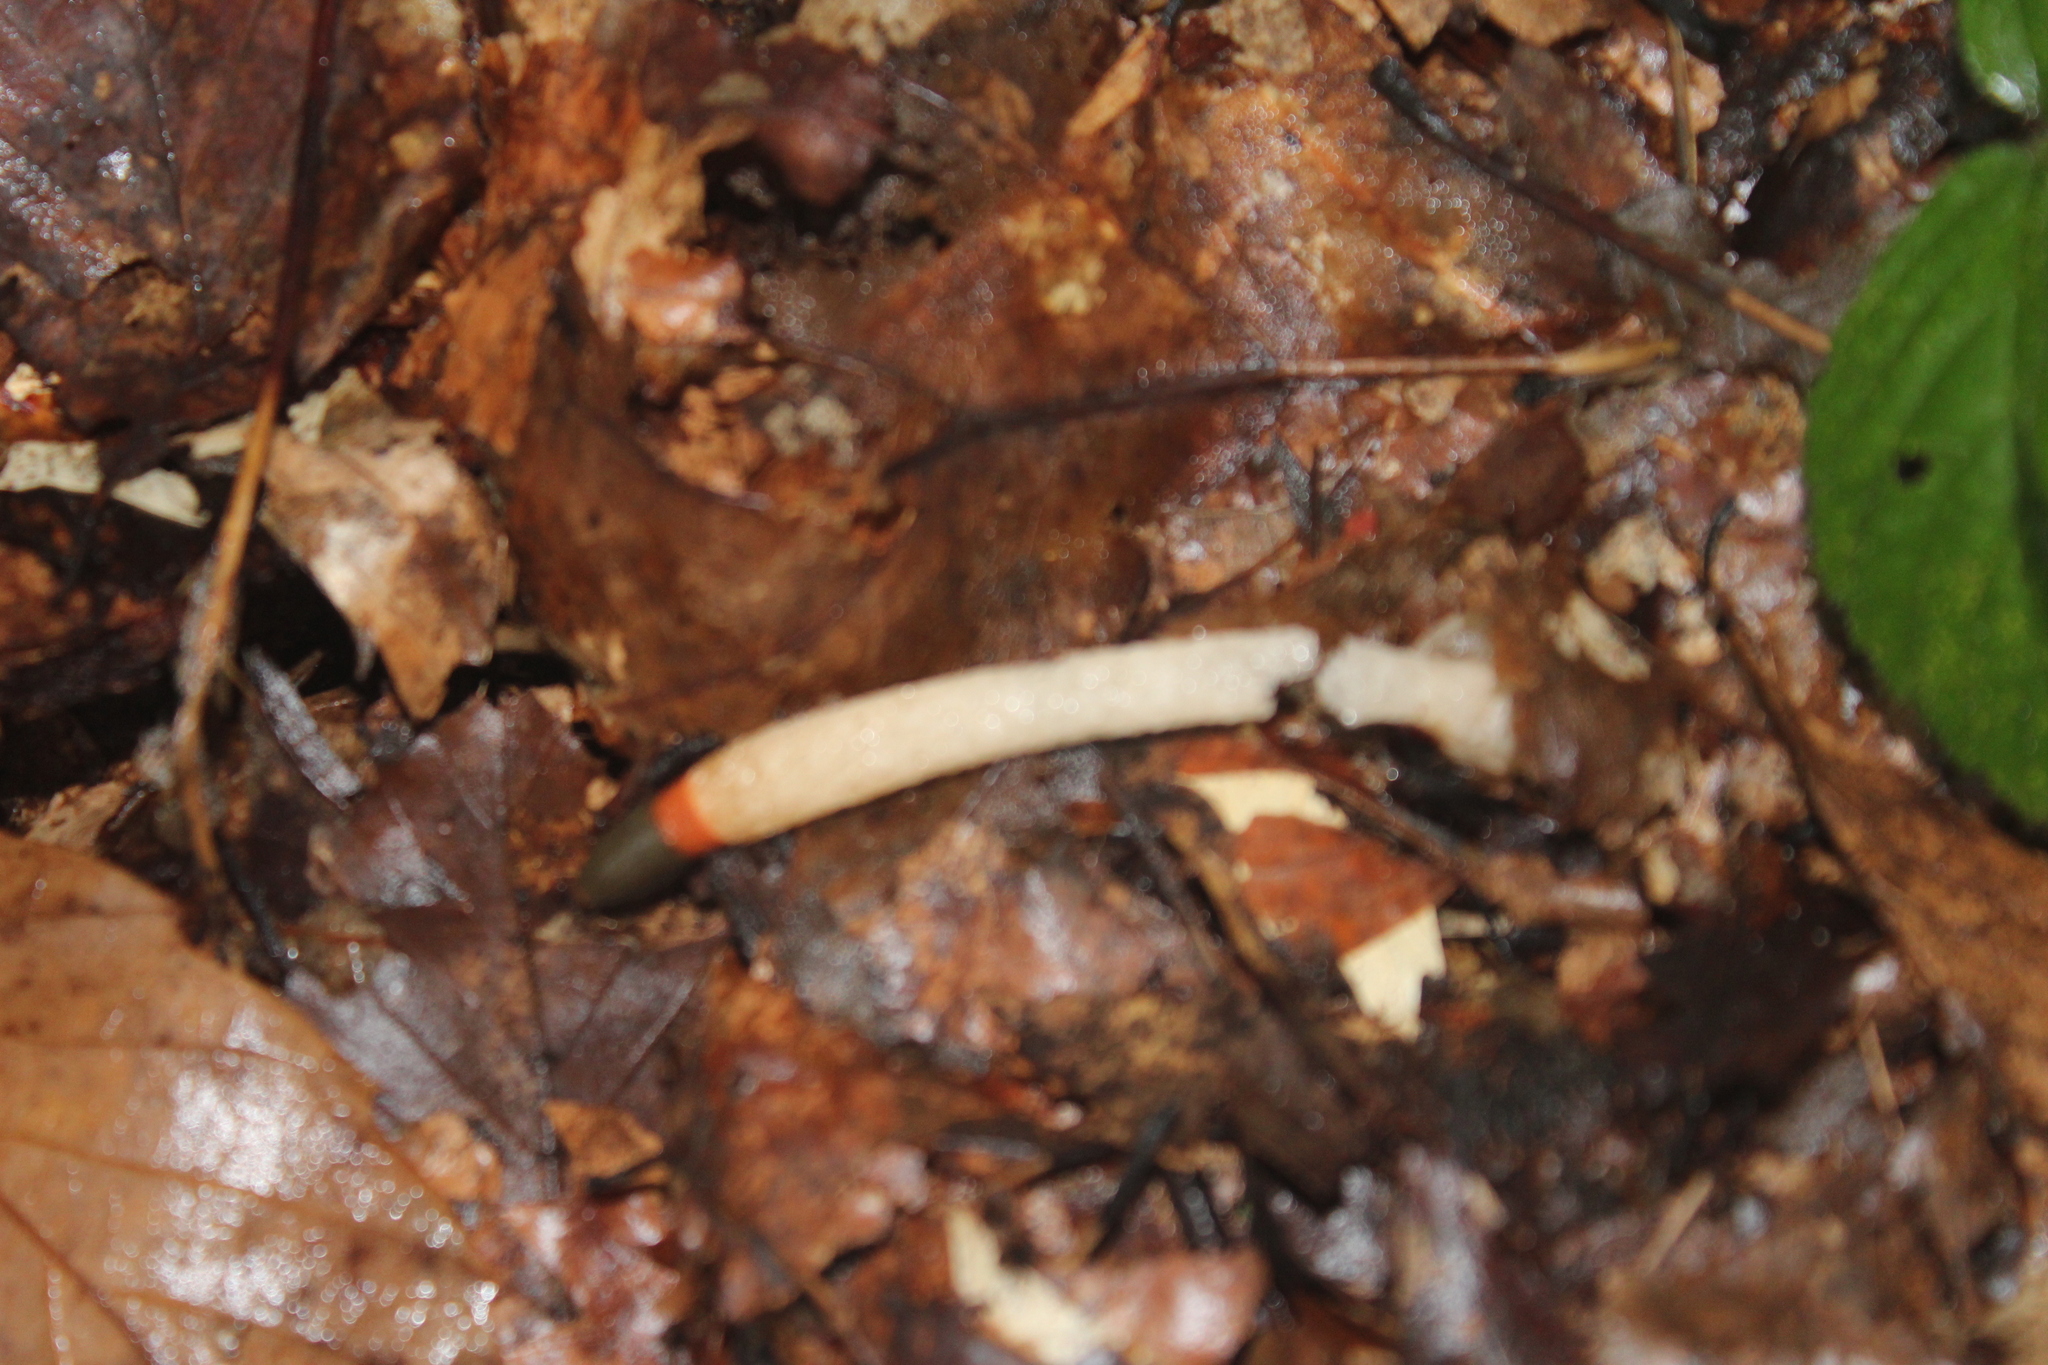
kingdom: Fungi
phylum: Basidiomycota
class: Agaricomycetes
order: Phallales
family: Phallaceae
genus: Mutinus
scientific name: Mutinus caninus
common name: Dog stinkhorn
